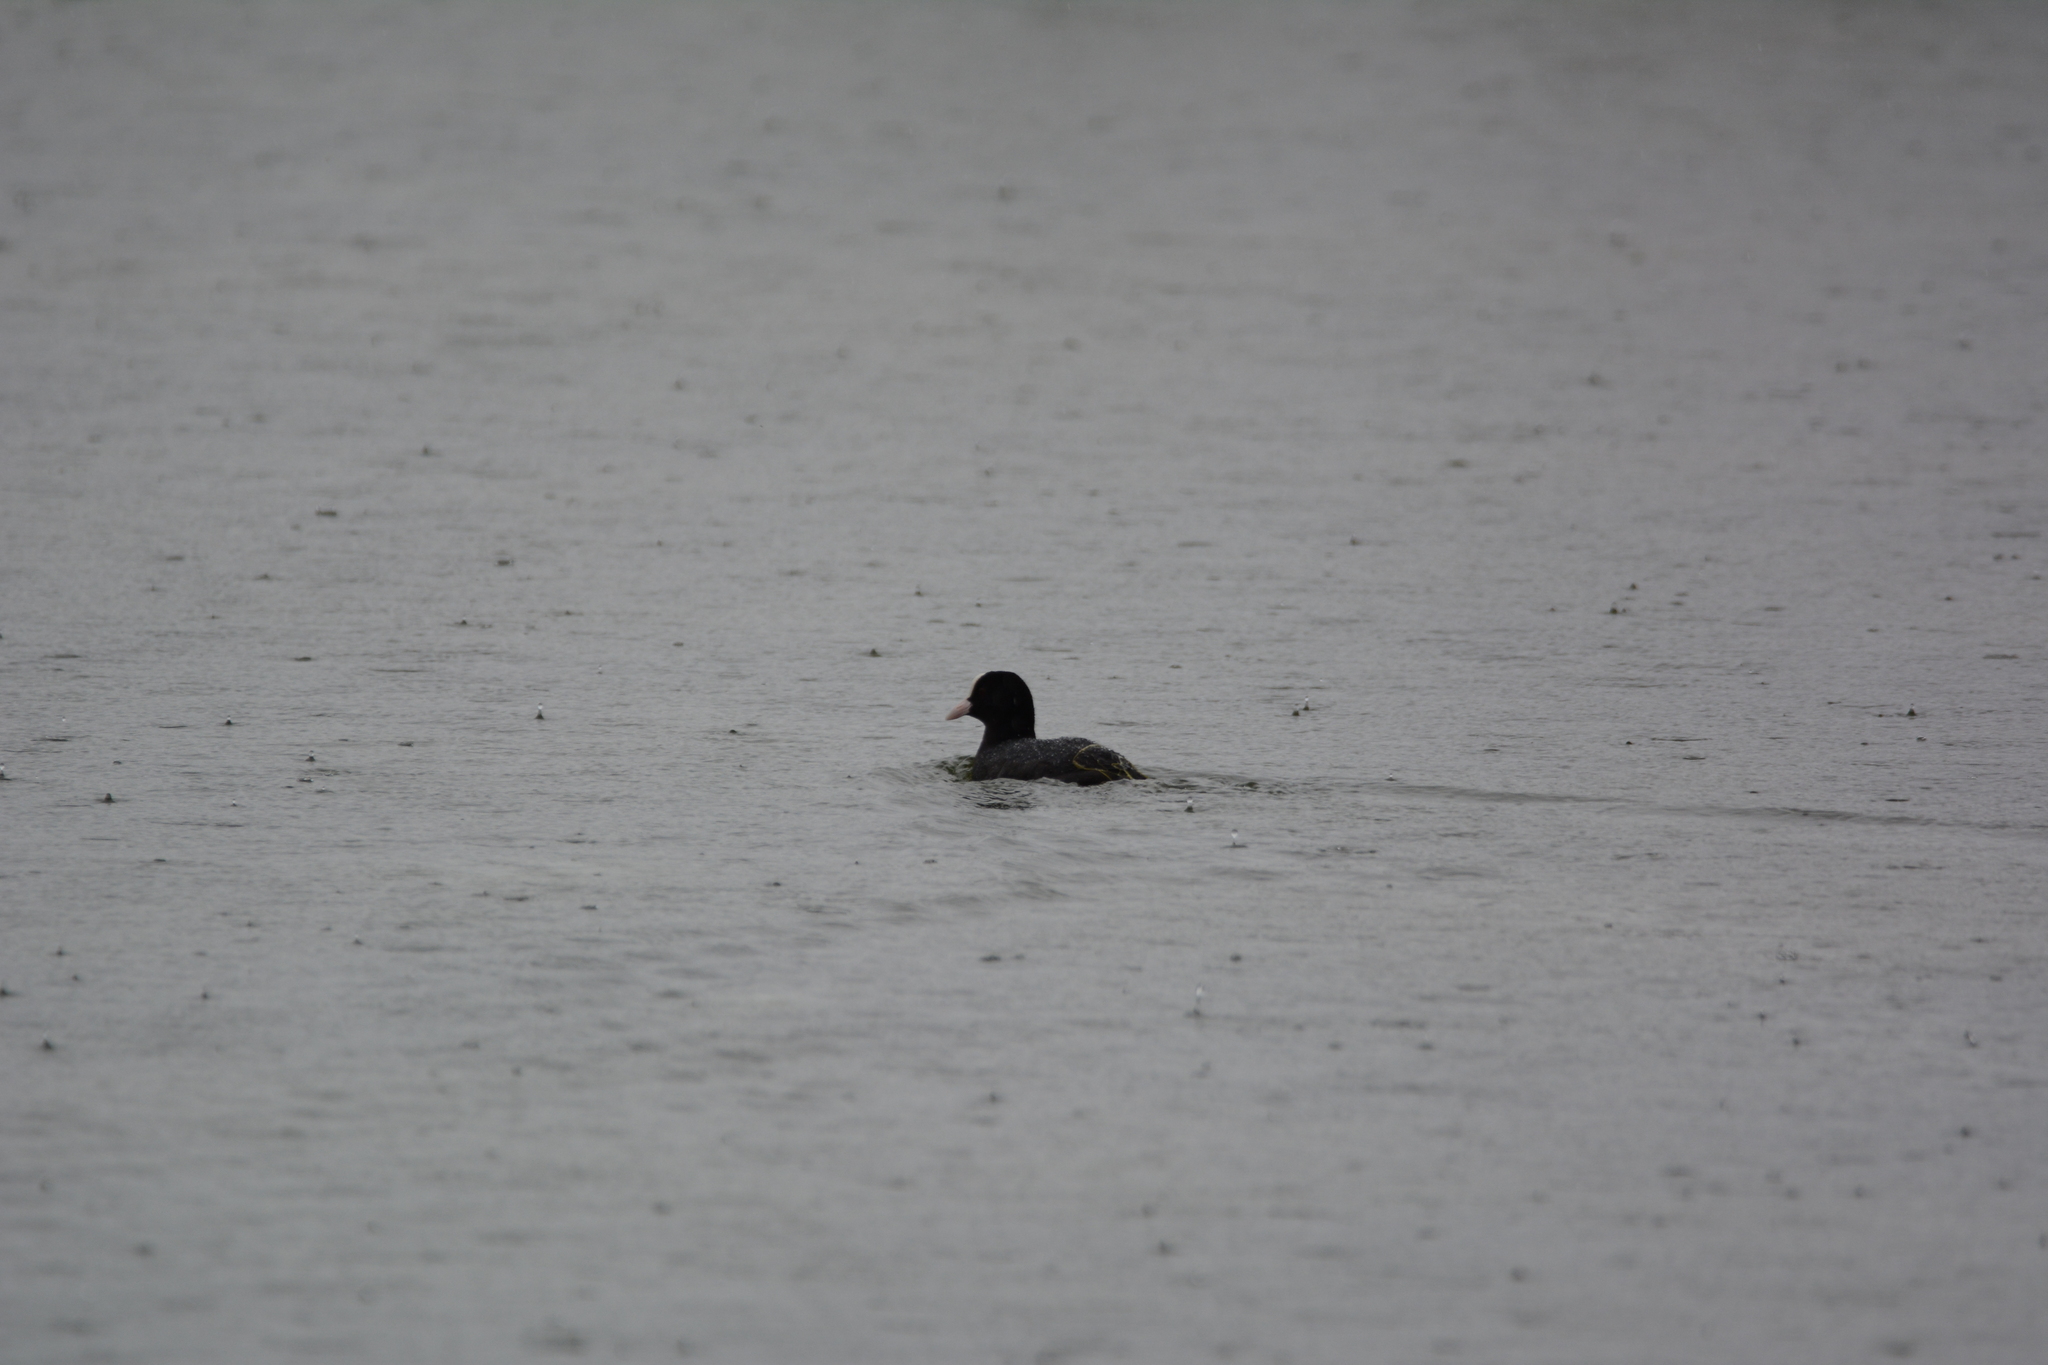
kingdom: Animalia
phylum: Chordata
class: Aves
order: Gruiformes
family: Rallidae
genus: Fulica
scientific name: Fulica atra
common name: Eurasian coot
